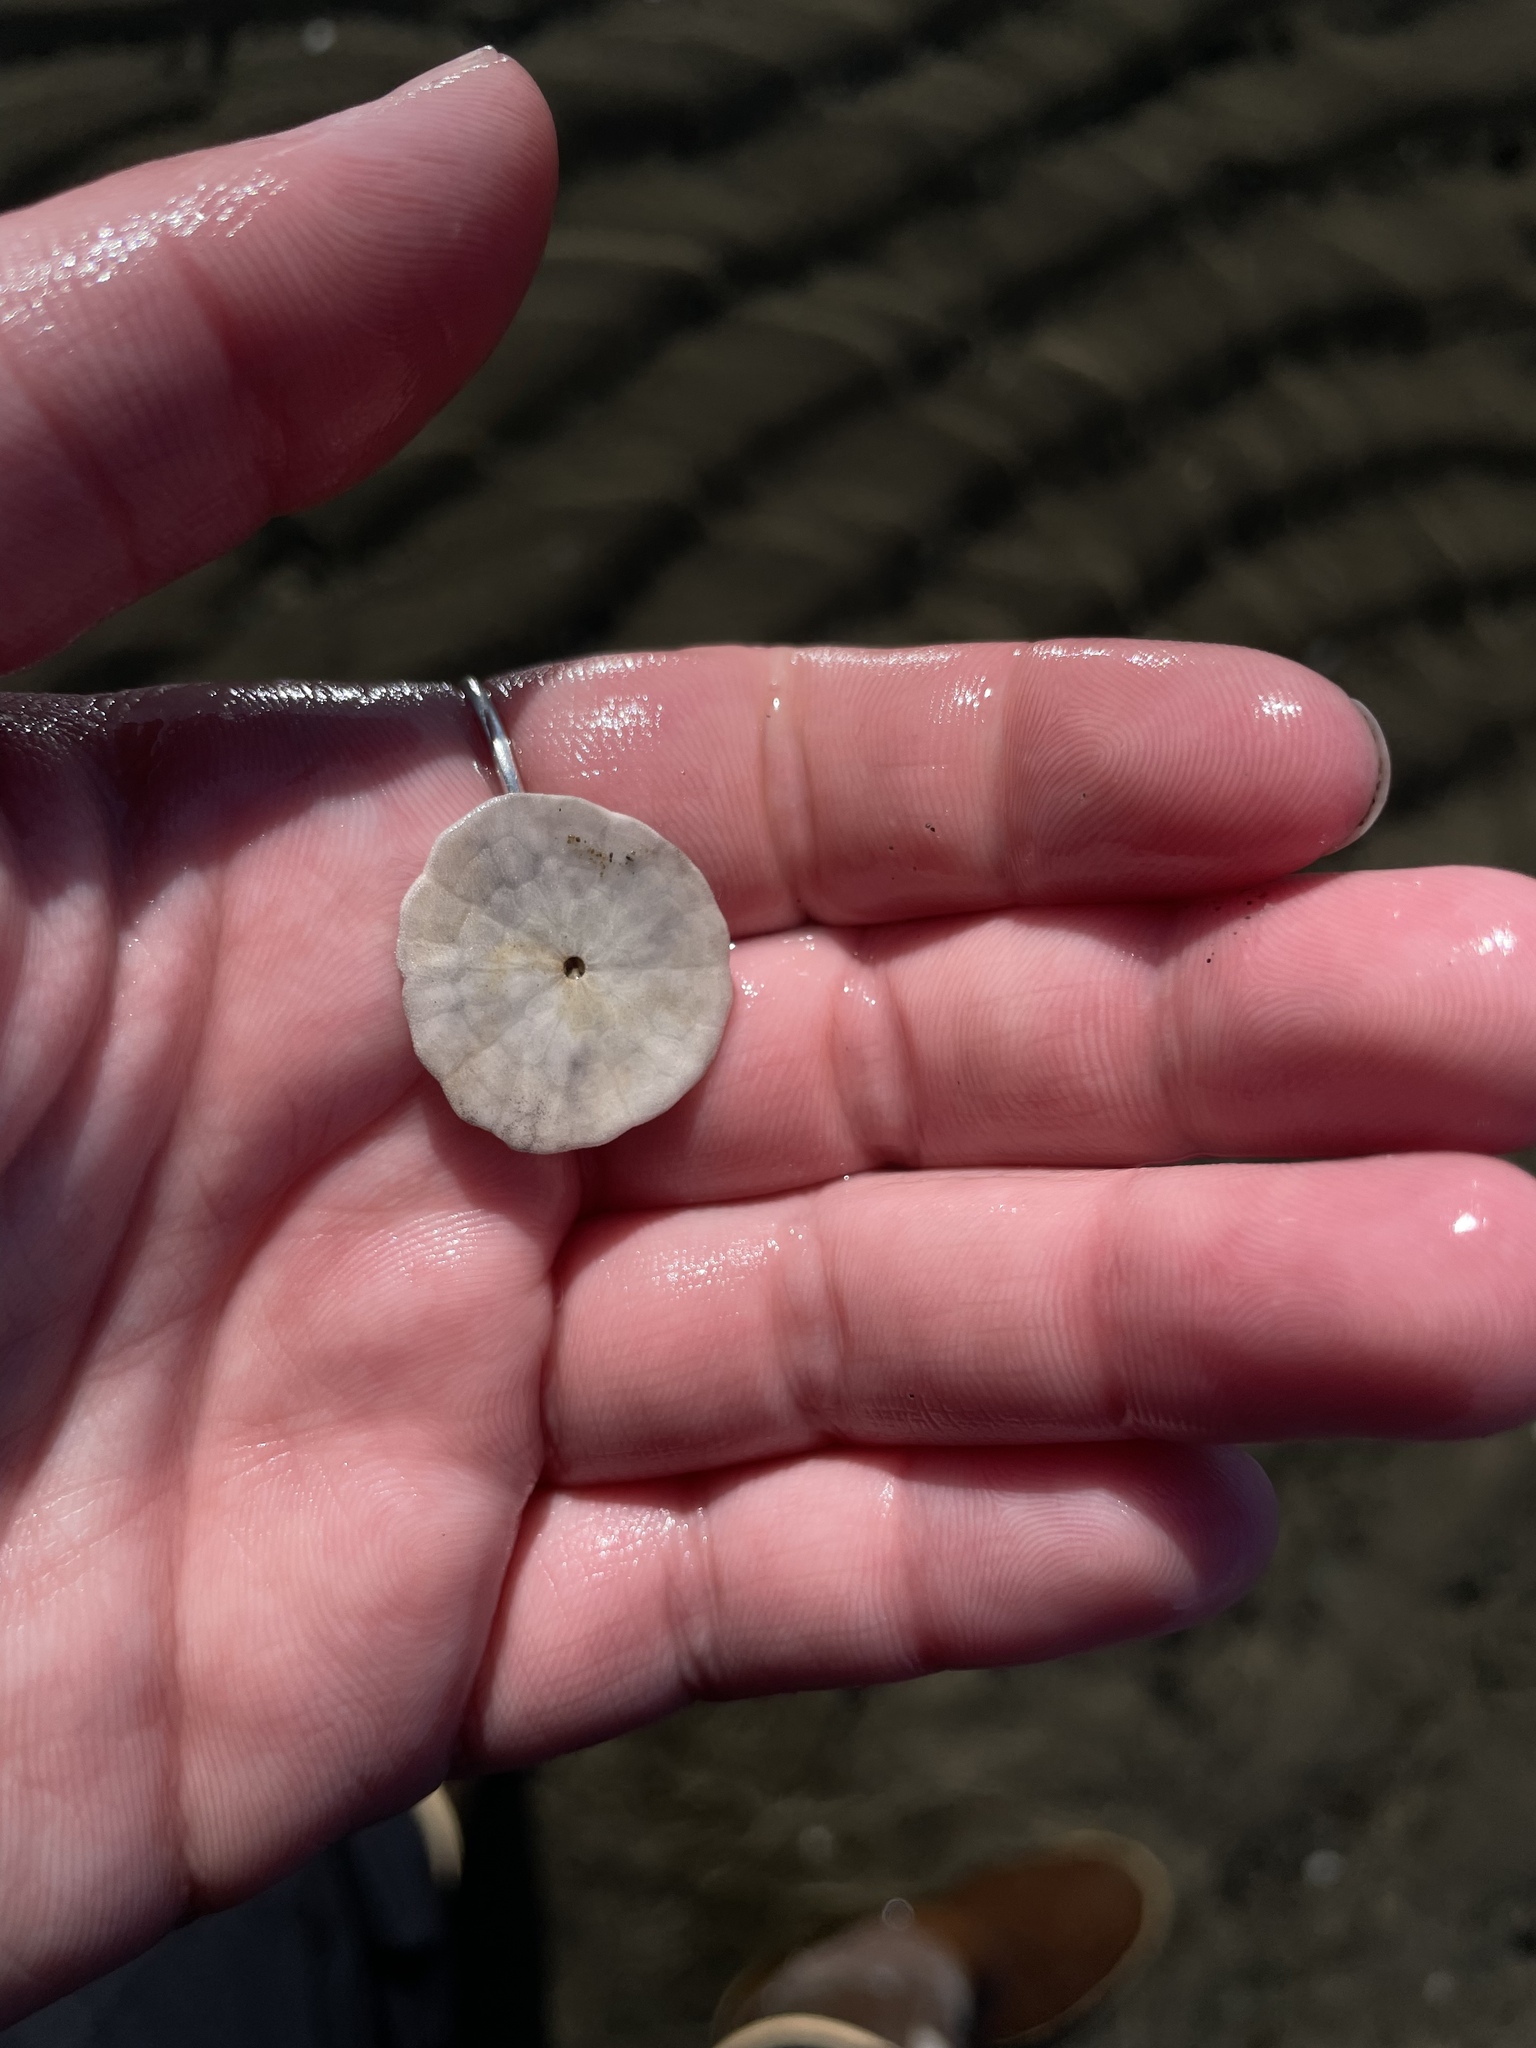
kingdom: Animalia
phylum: Echinodermata
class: Echinoidea
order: Echinolampadacea
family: Echinarachniidae
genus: Echinarachnius
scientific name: Echinarachnius parma
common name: Common sand dollar
